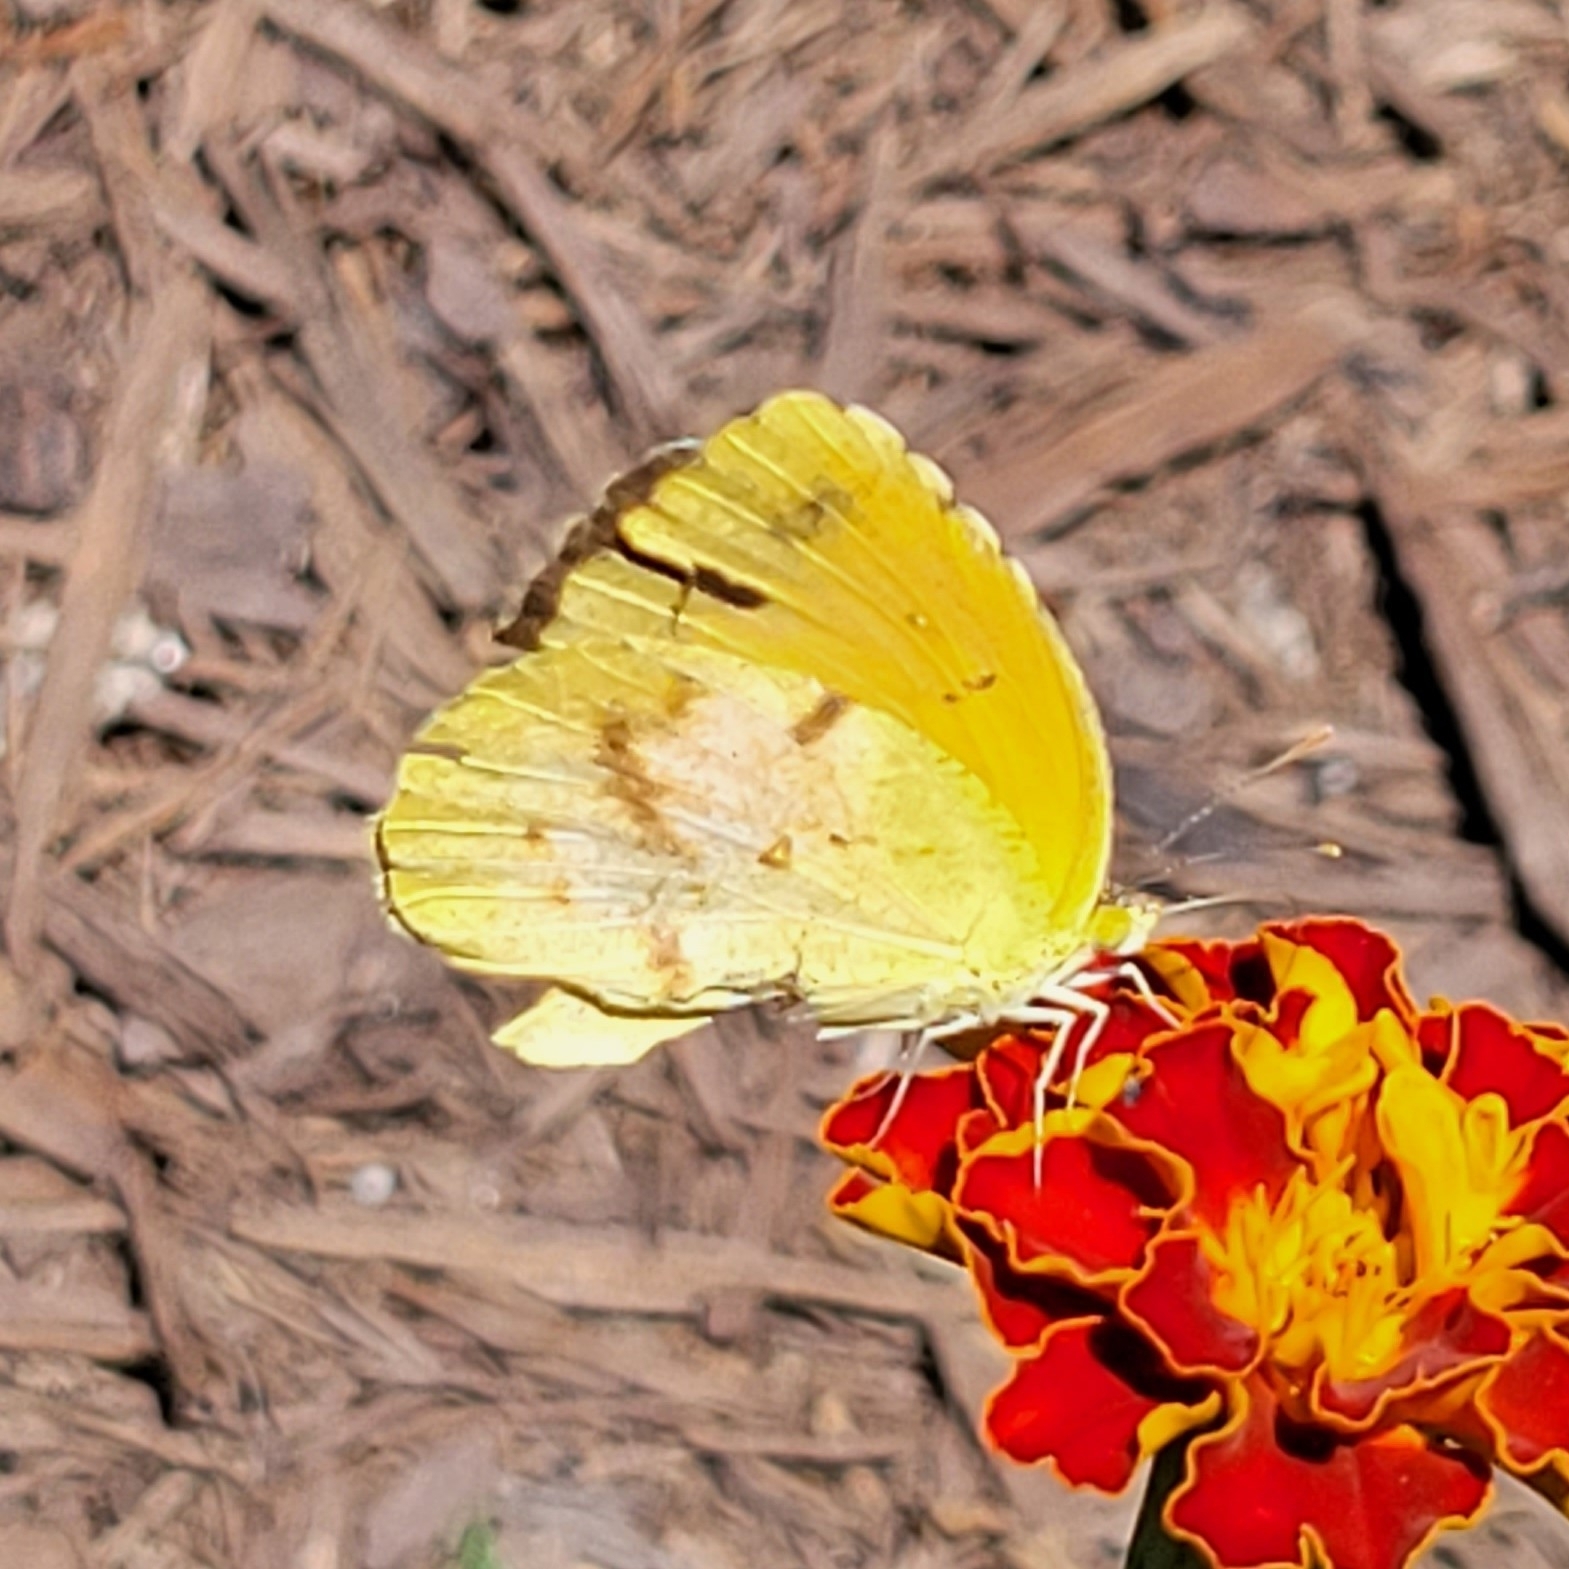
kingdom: Animalia
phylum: Arthropoda
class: Insecta
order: Lepidoptera
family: Pieridae
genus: Abaeis
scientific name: Abaeis nicippe
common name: Sleepy orange
